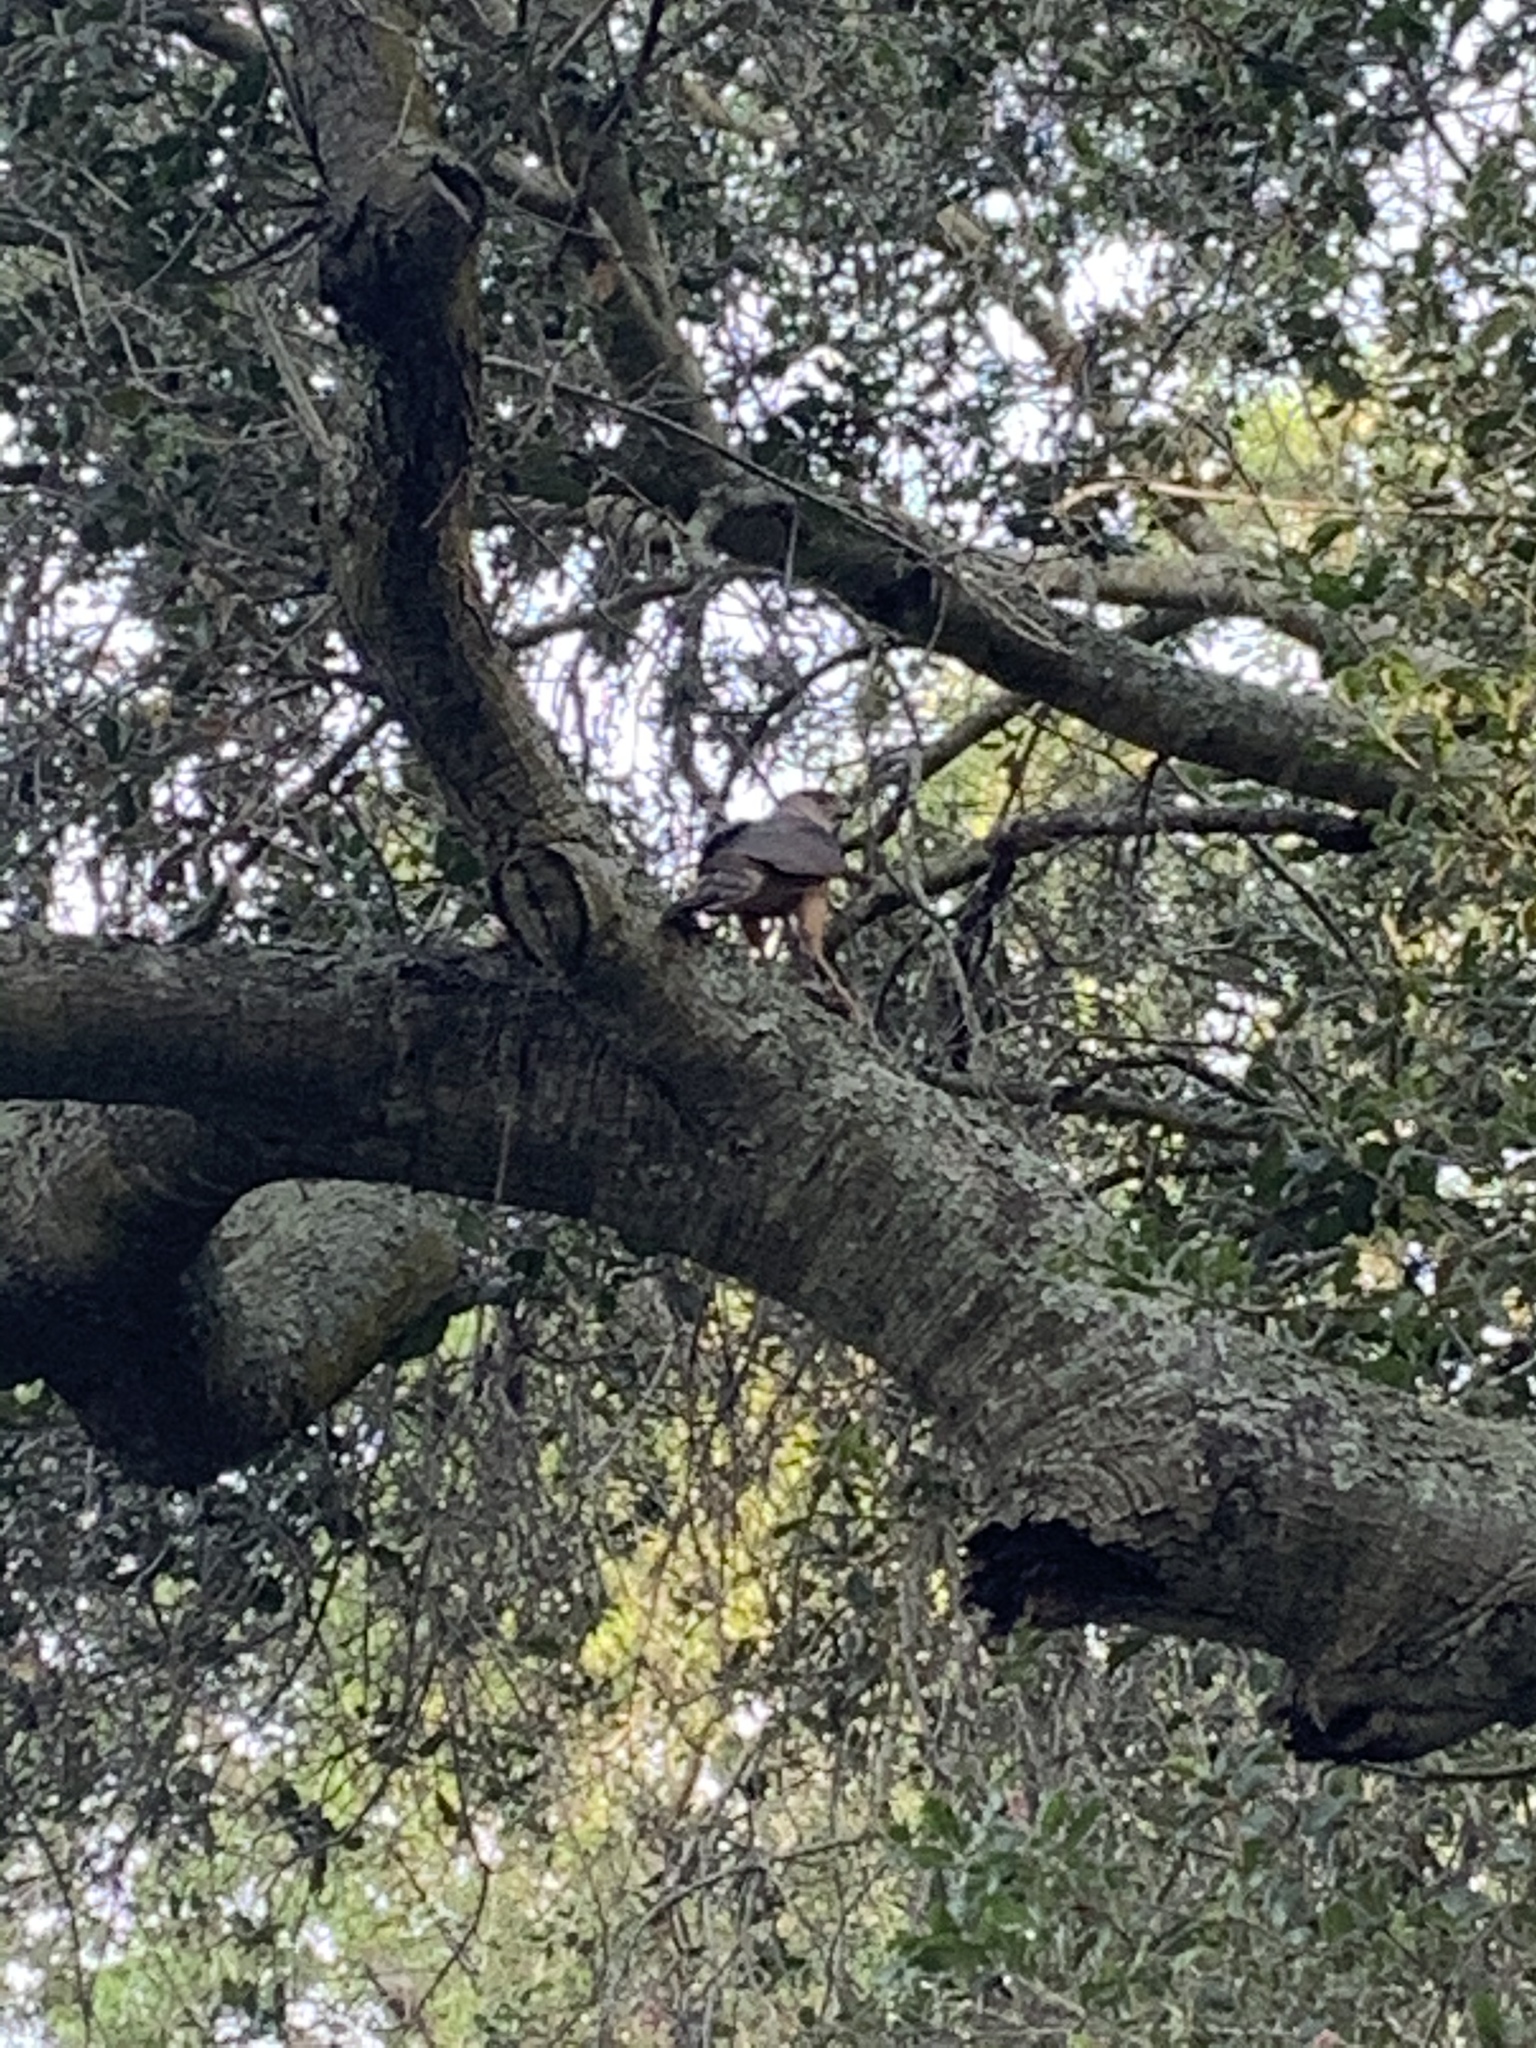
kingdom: Animalia
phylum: Chordata
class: Aves
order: Accipitriformes
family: Accipitridae
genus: Accipiter
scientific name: Accipiter cooperii
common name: Cooper's hawk
